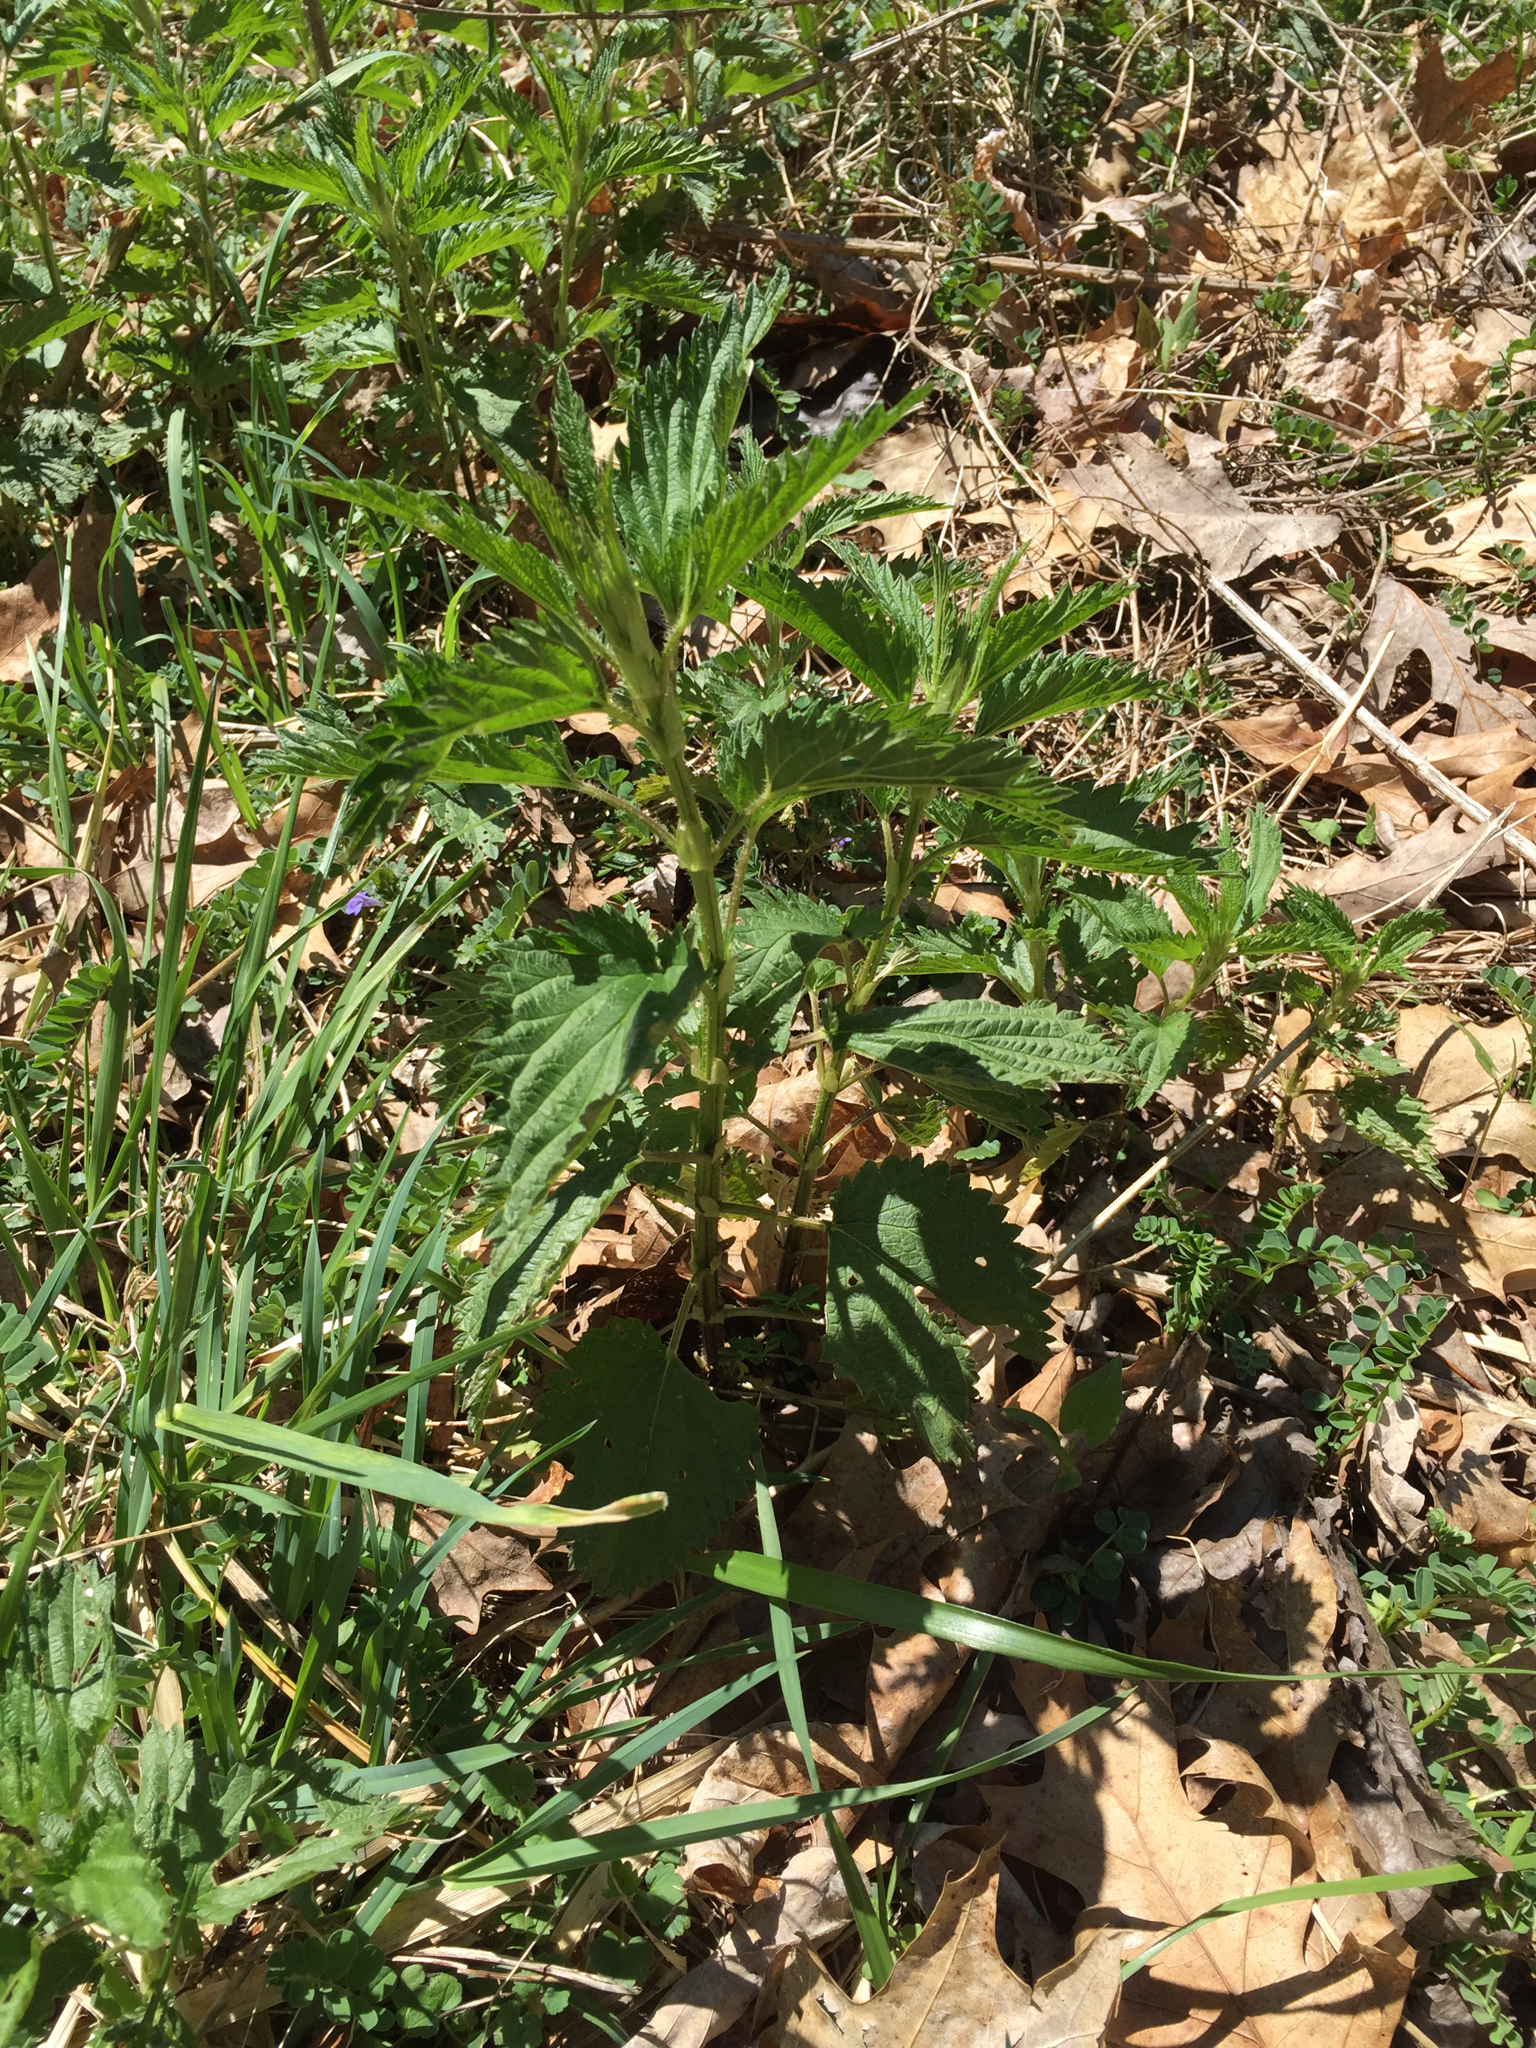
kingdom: Plantae
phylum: Tracheophyta
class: Magnoliopsida
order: Rosales
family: Urticaceae
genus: Urtica
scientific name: Urtica dioica
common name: Common nettle
